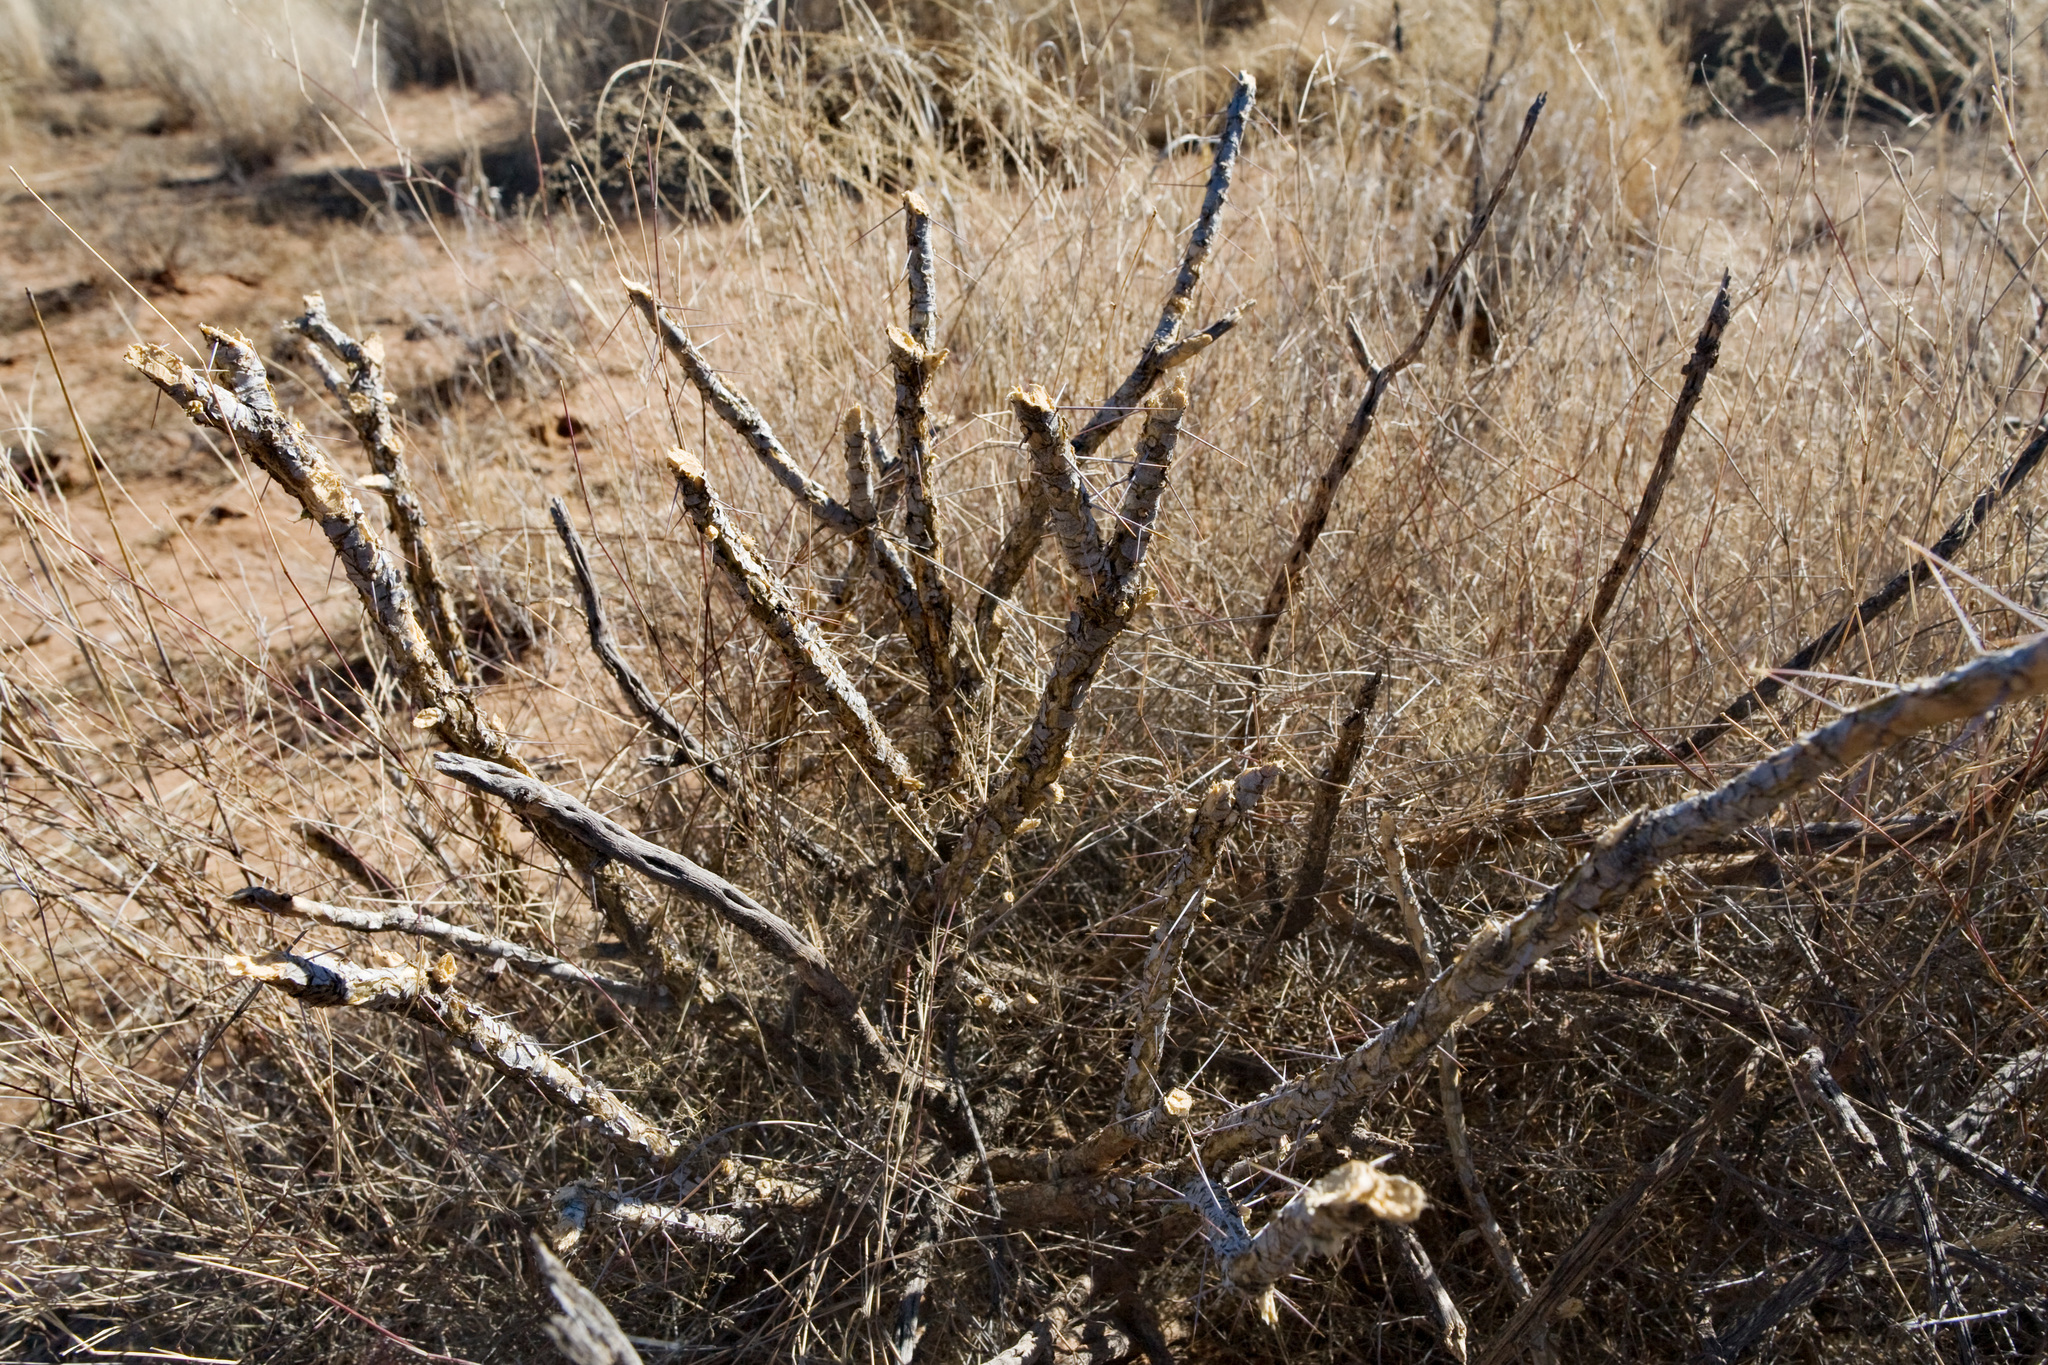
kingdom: Plantae
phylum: Tracheophyta
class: Magnoliopsida
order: Caryophyllales
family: Cactaceae
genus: Cylindropuntia
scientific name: Cylindropuntia leptocaulis
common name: Christmas cactus
